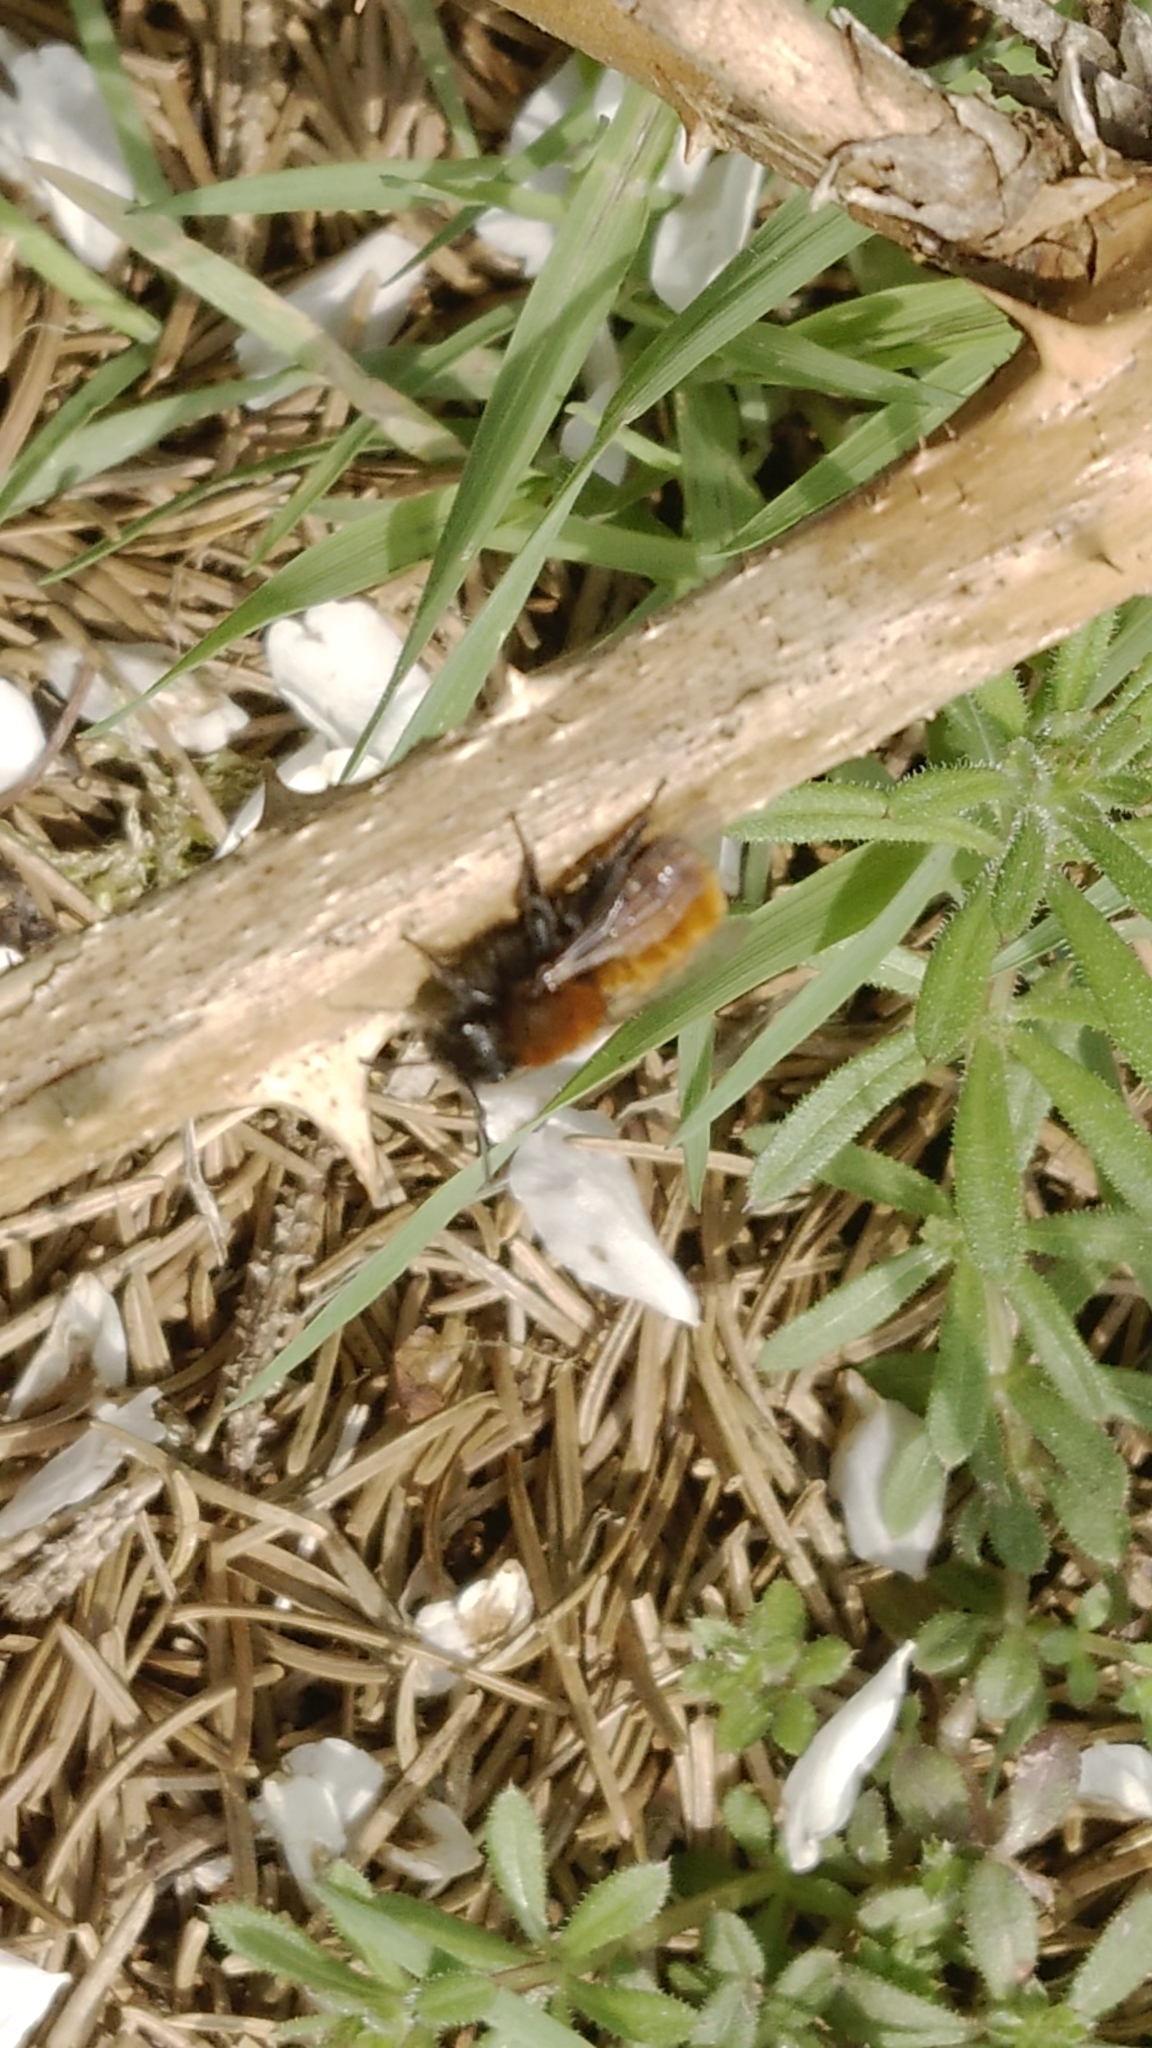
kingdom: Animalia
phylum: Arthropoda
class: Insecta
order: Hymenoptera
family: Andrenidae
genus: Andrena
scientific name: Andrena fulva
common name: Tawny mining bee
